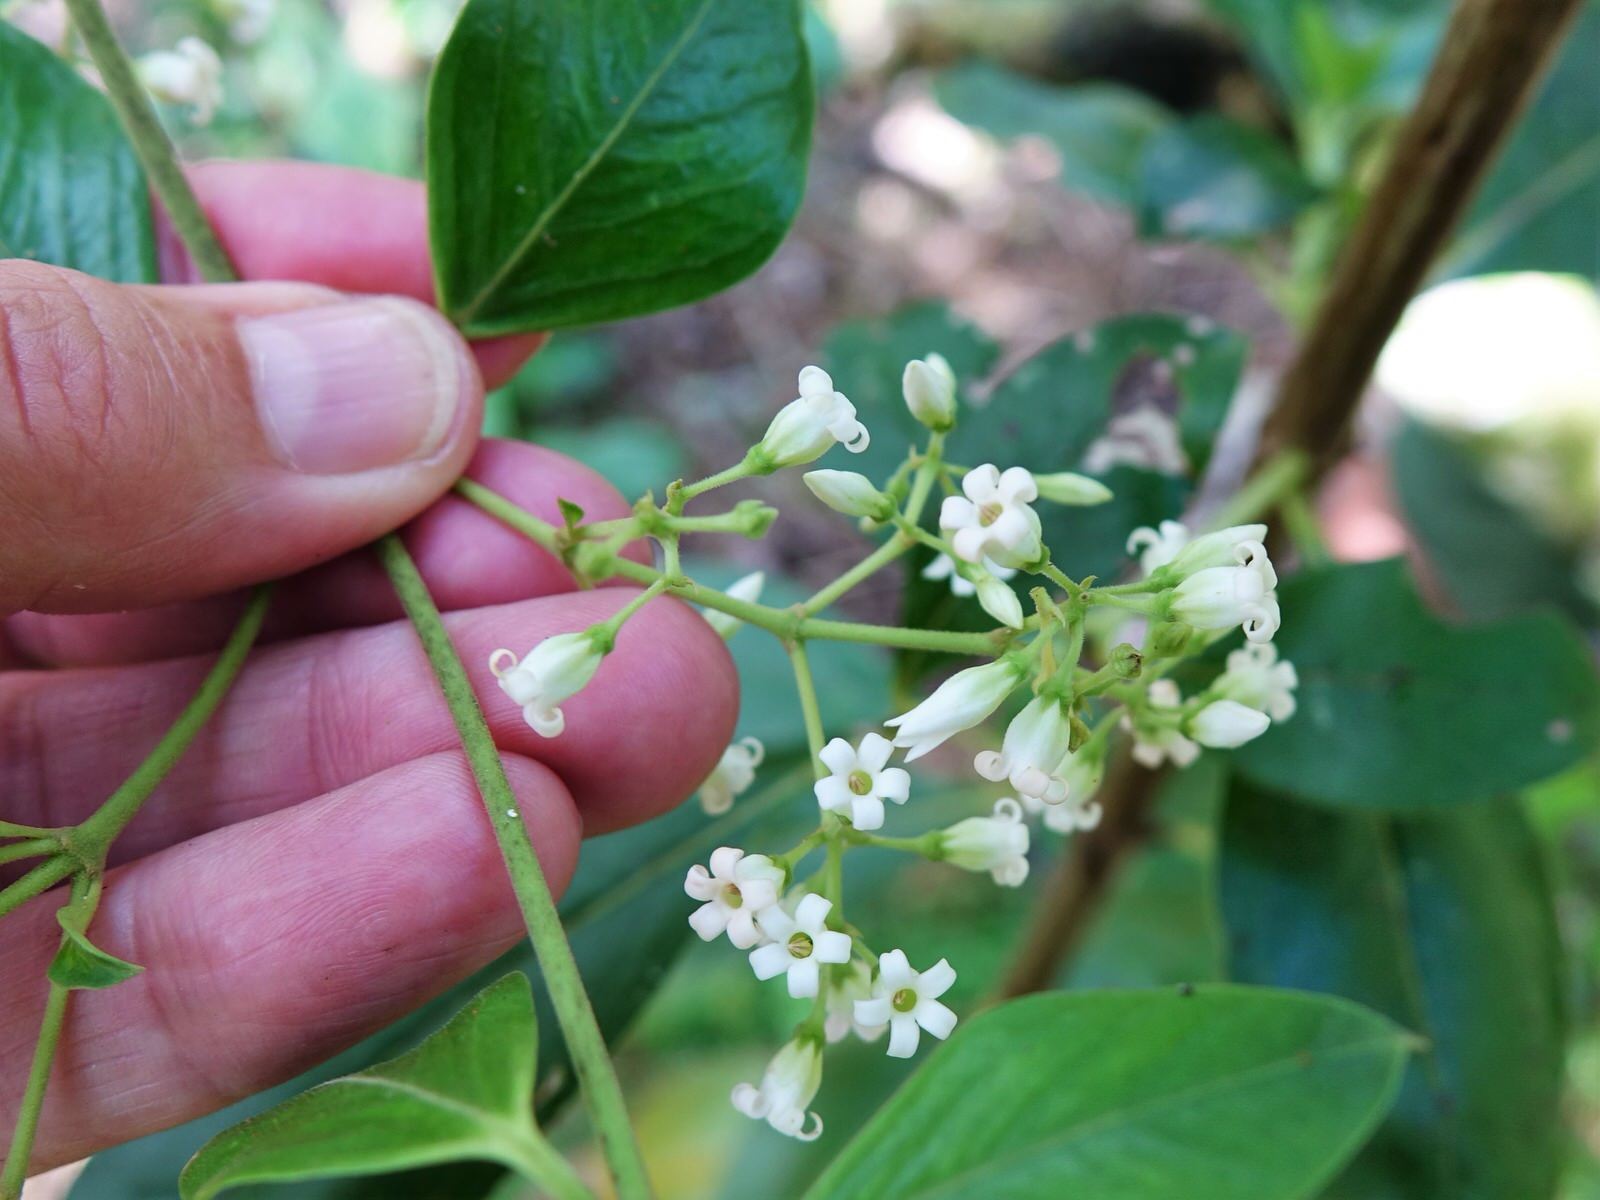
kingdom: Plantae
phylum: Tracheophyta
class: Magnoliopsida
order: Gentianales
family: Apocynaceae
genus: Parsonsia
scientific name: Parsonsia heterophylla
